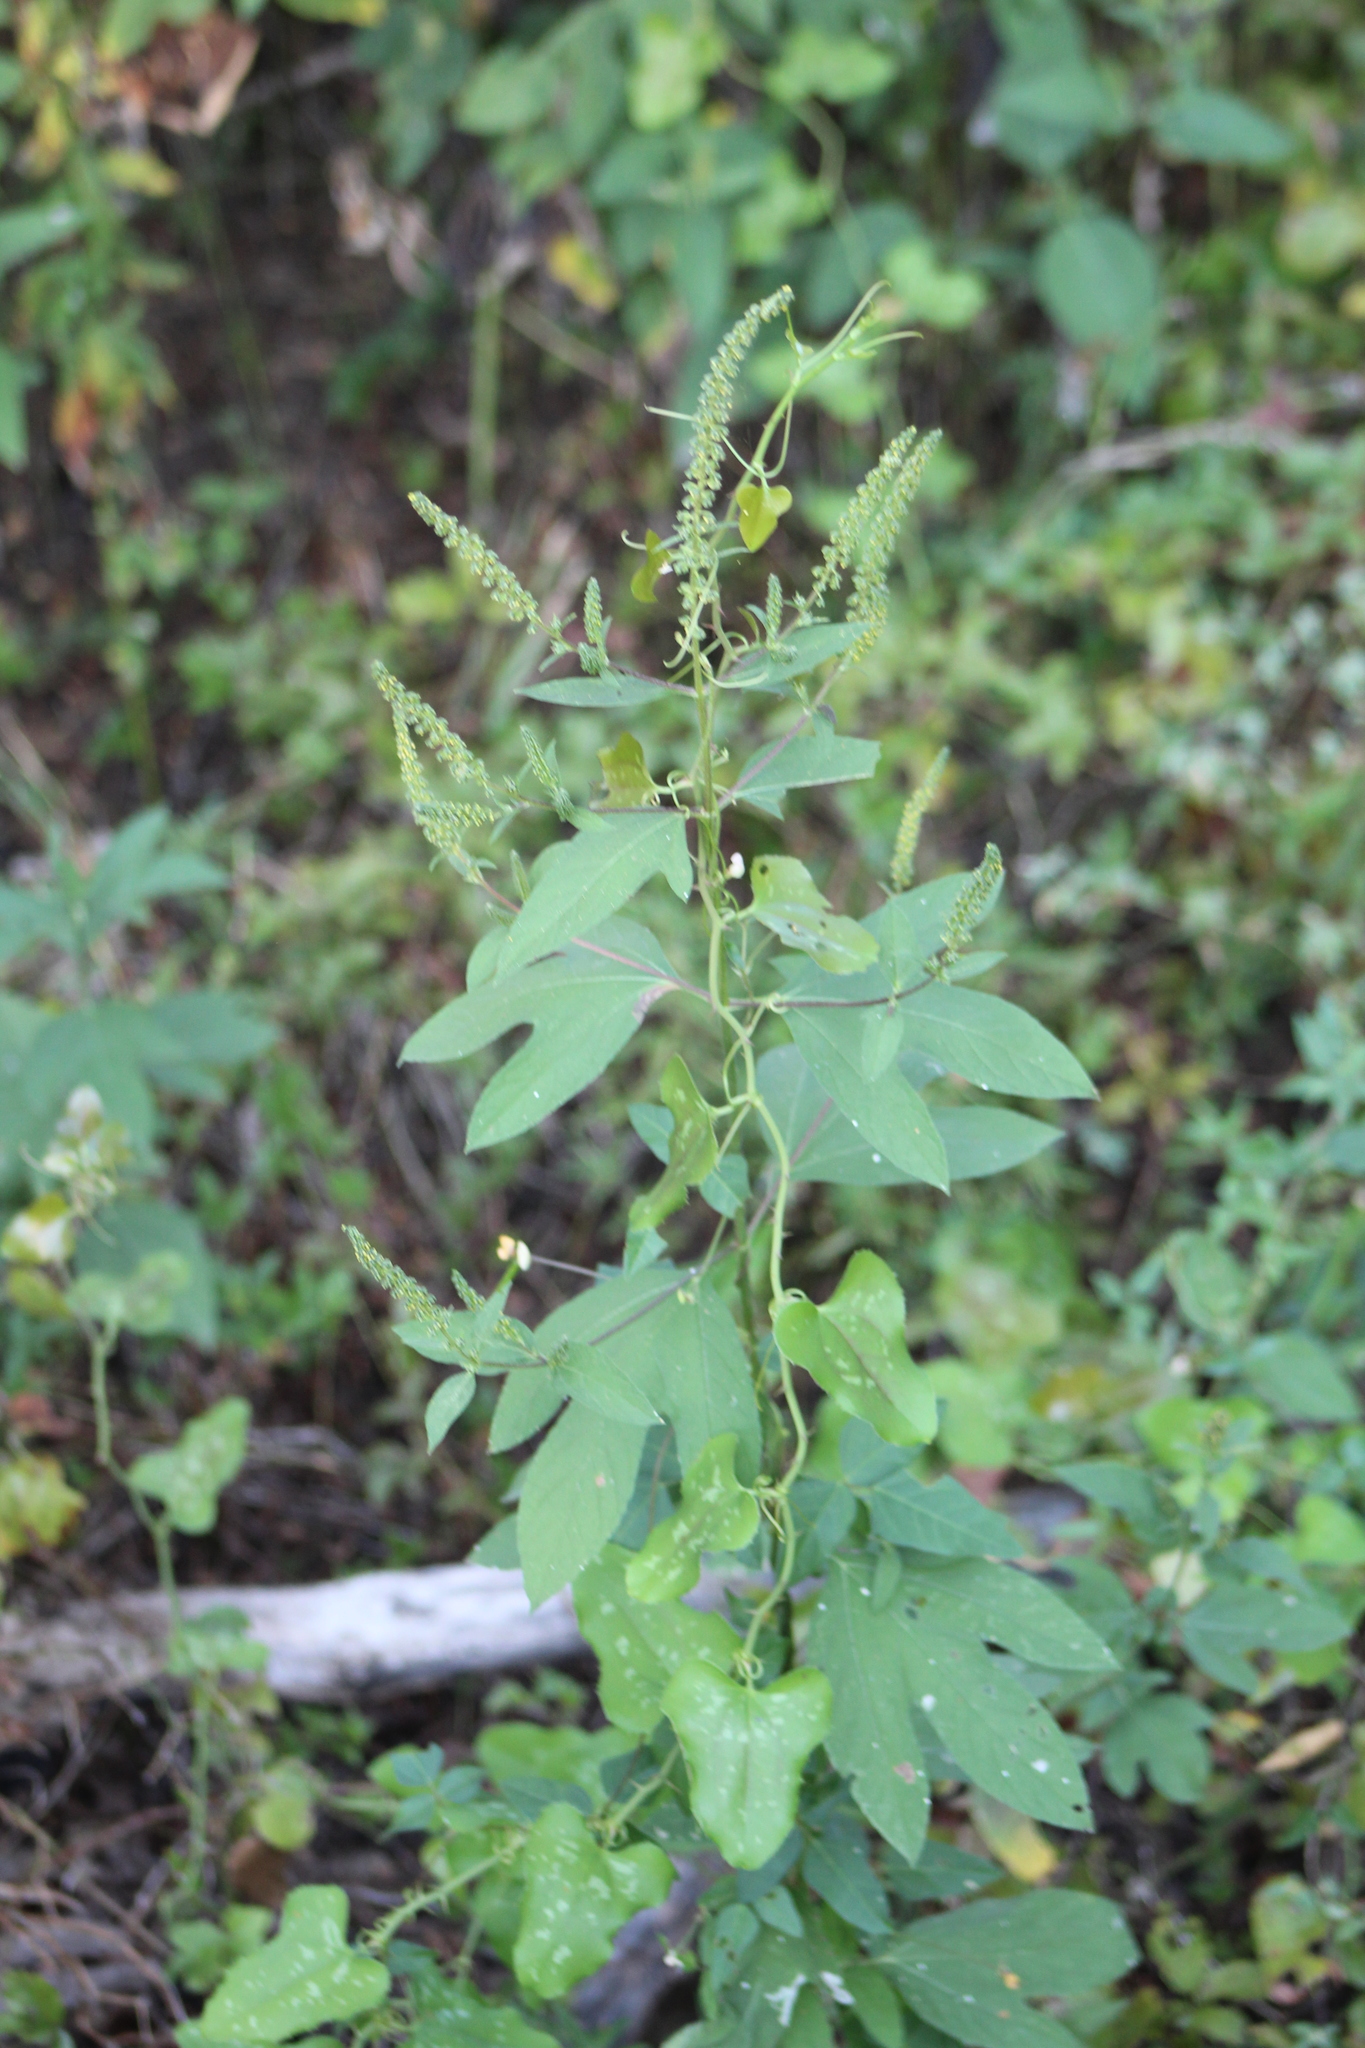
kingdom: Plantae
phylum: Tracheophyta
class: Magnoliopsida
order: Asterales
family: Asteraceae
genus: Ambrosia
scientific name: Ambrosia trifida
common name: Giant ragweed
